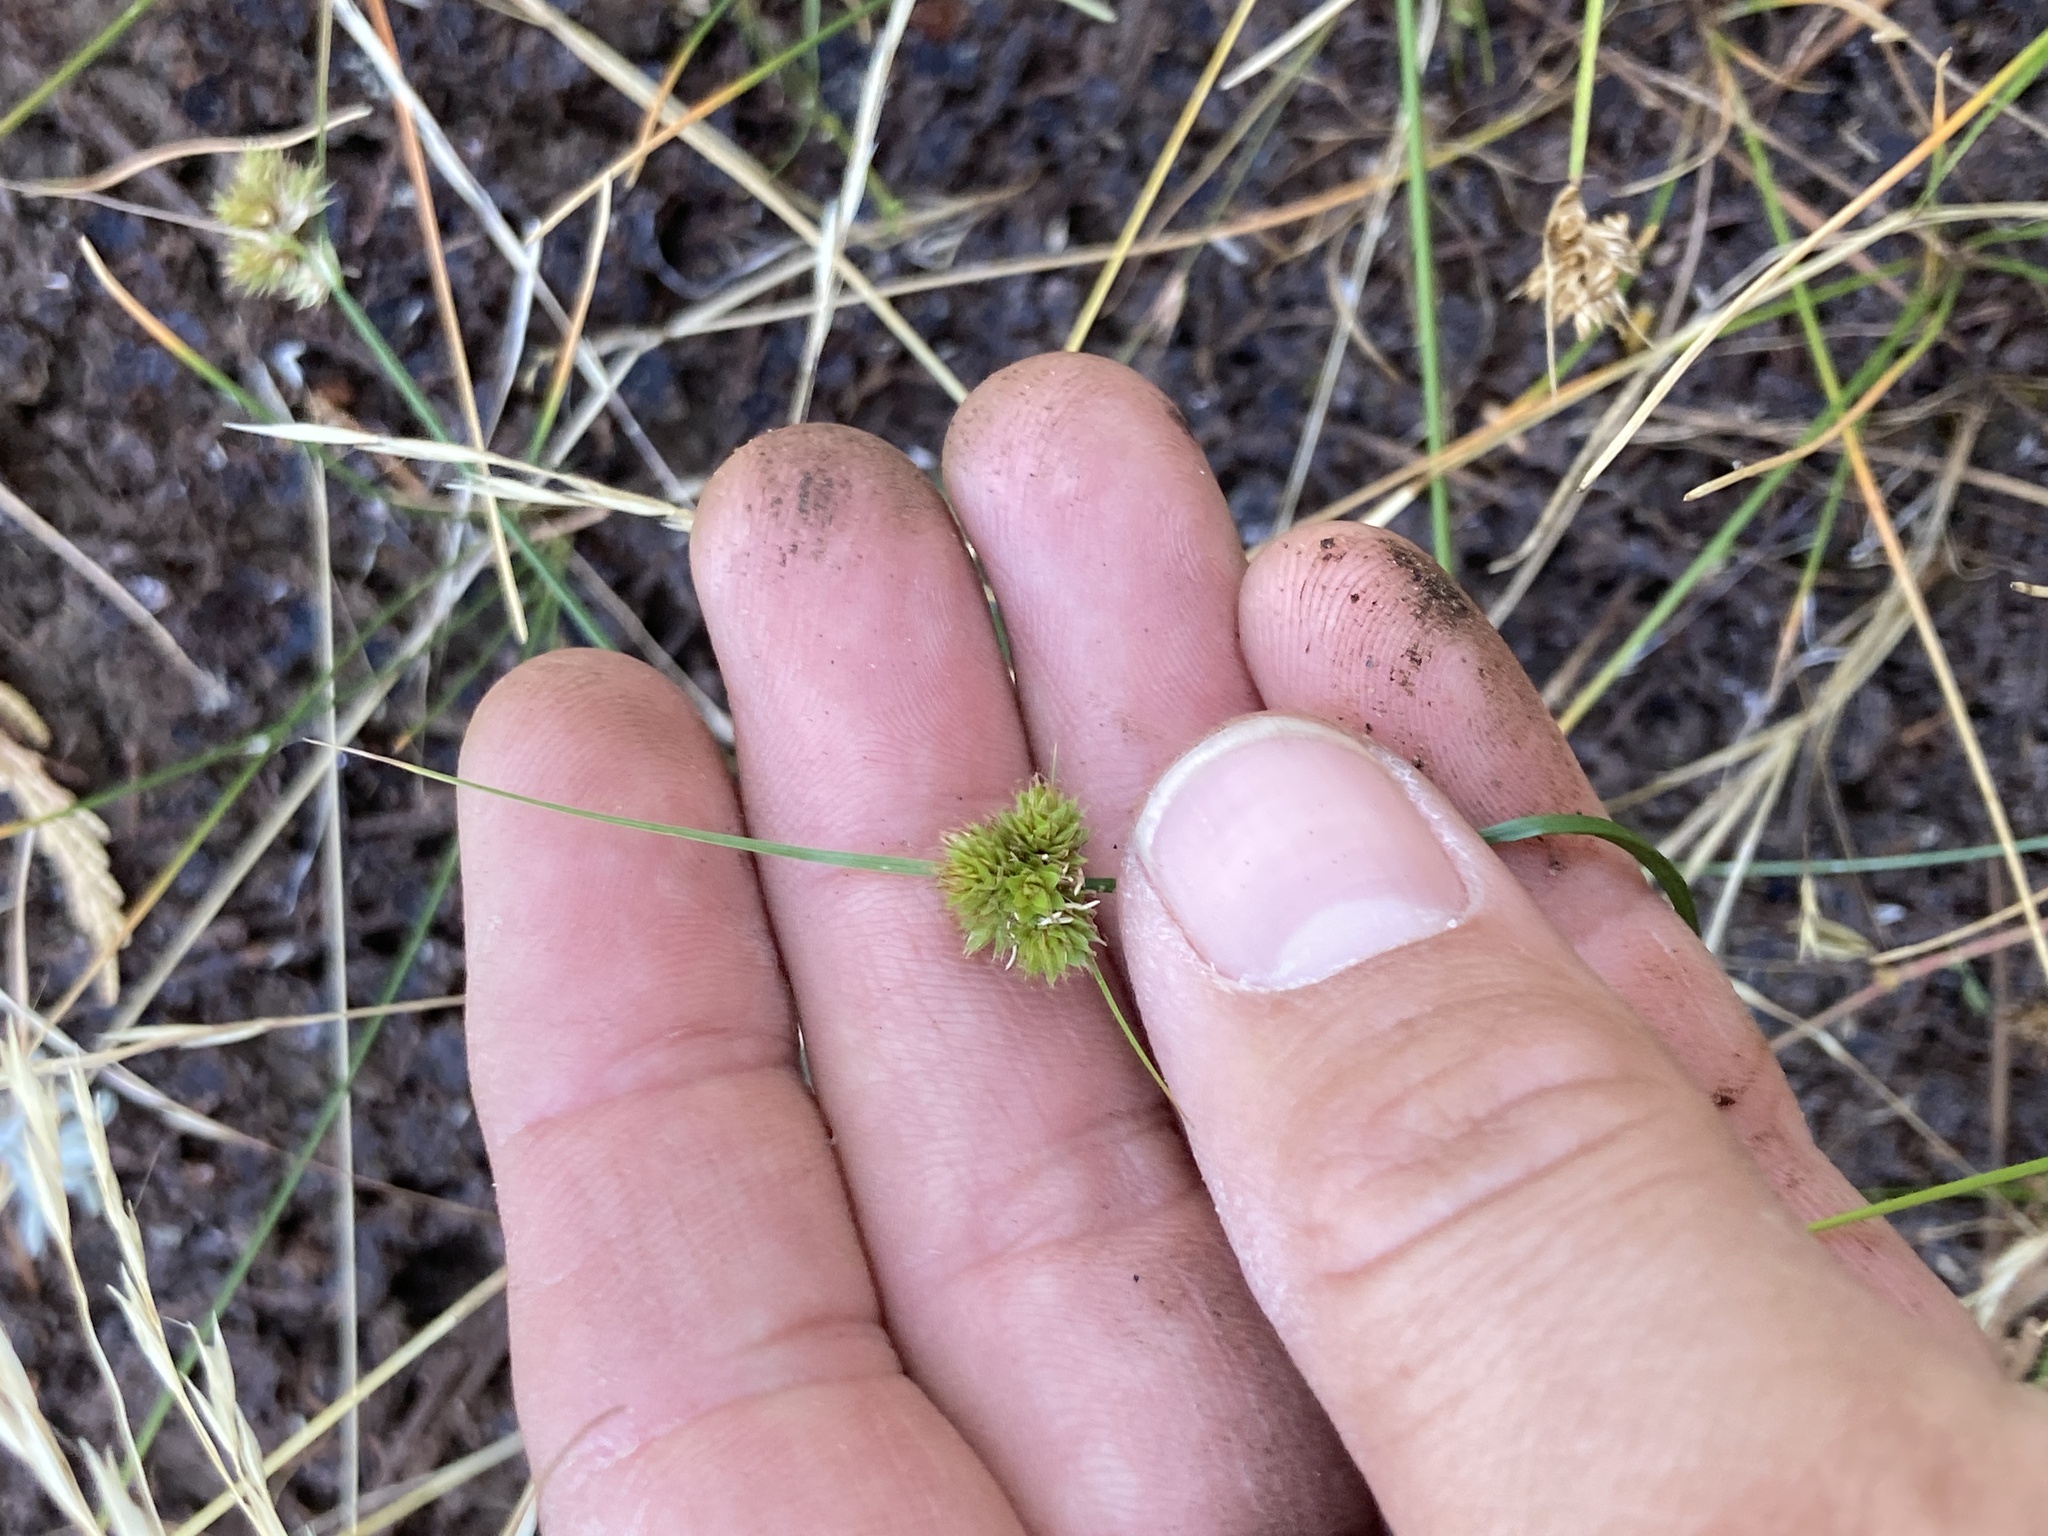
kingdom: Plantae
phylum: Tracheophyta
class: Liliopsida
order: Poales
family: Cyperaceae
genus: Carex
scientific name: Carex athrostachya
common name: Slenderbeak sedge
